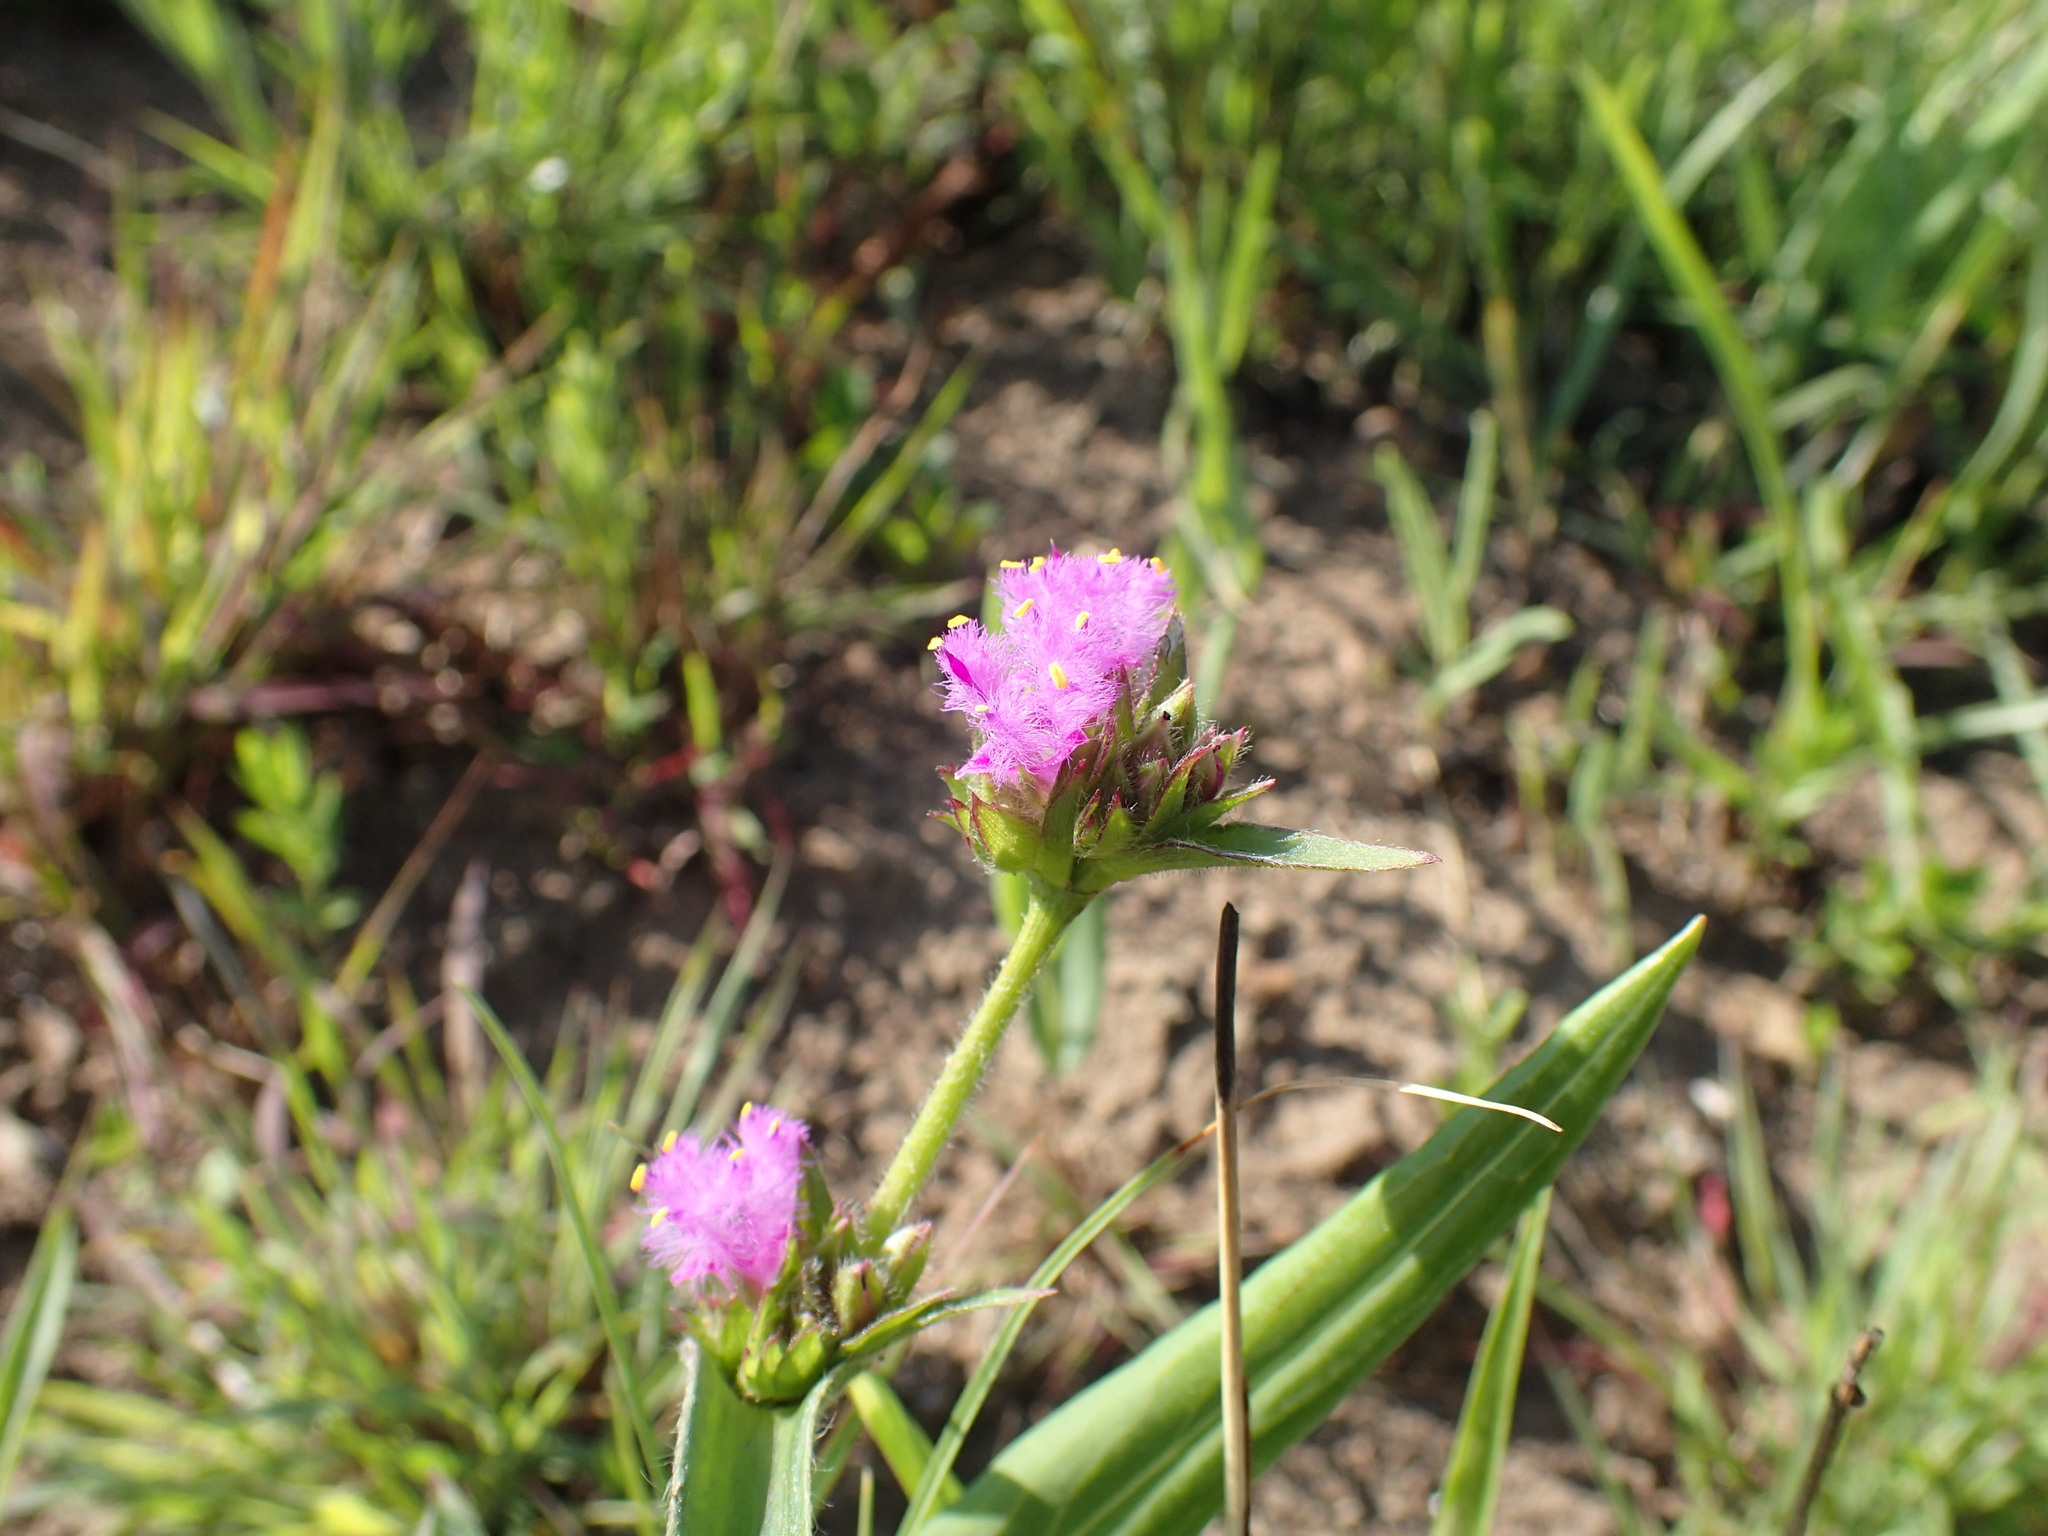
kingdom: Plantae
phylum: Tracheophyta
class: Liliopsida
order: Commelinales
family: Commelinaceae
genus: Cyanotis
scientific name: Cyanotis speciosa
